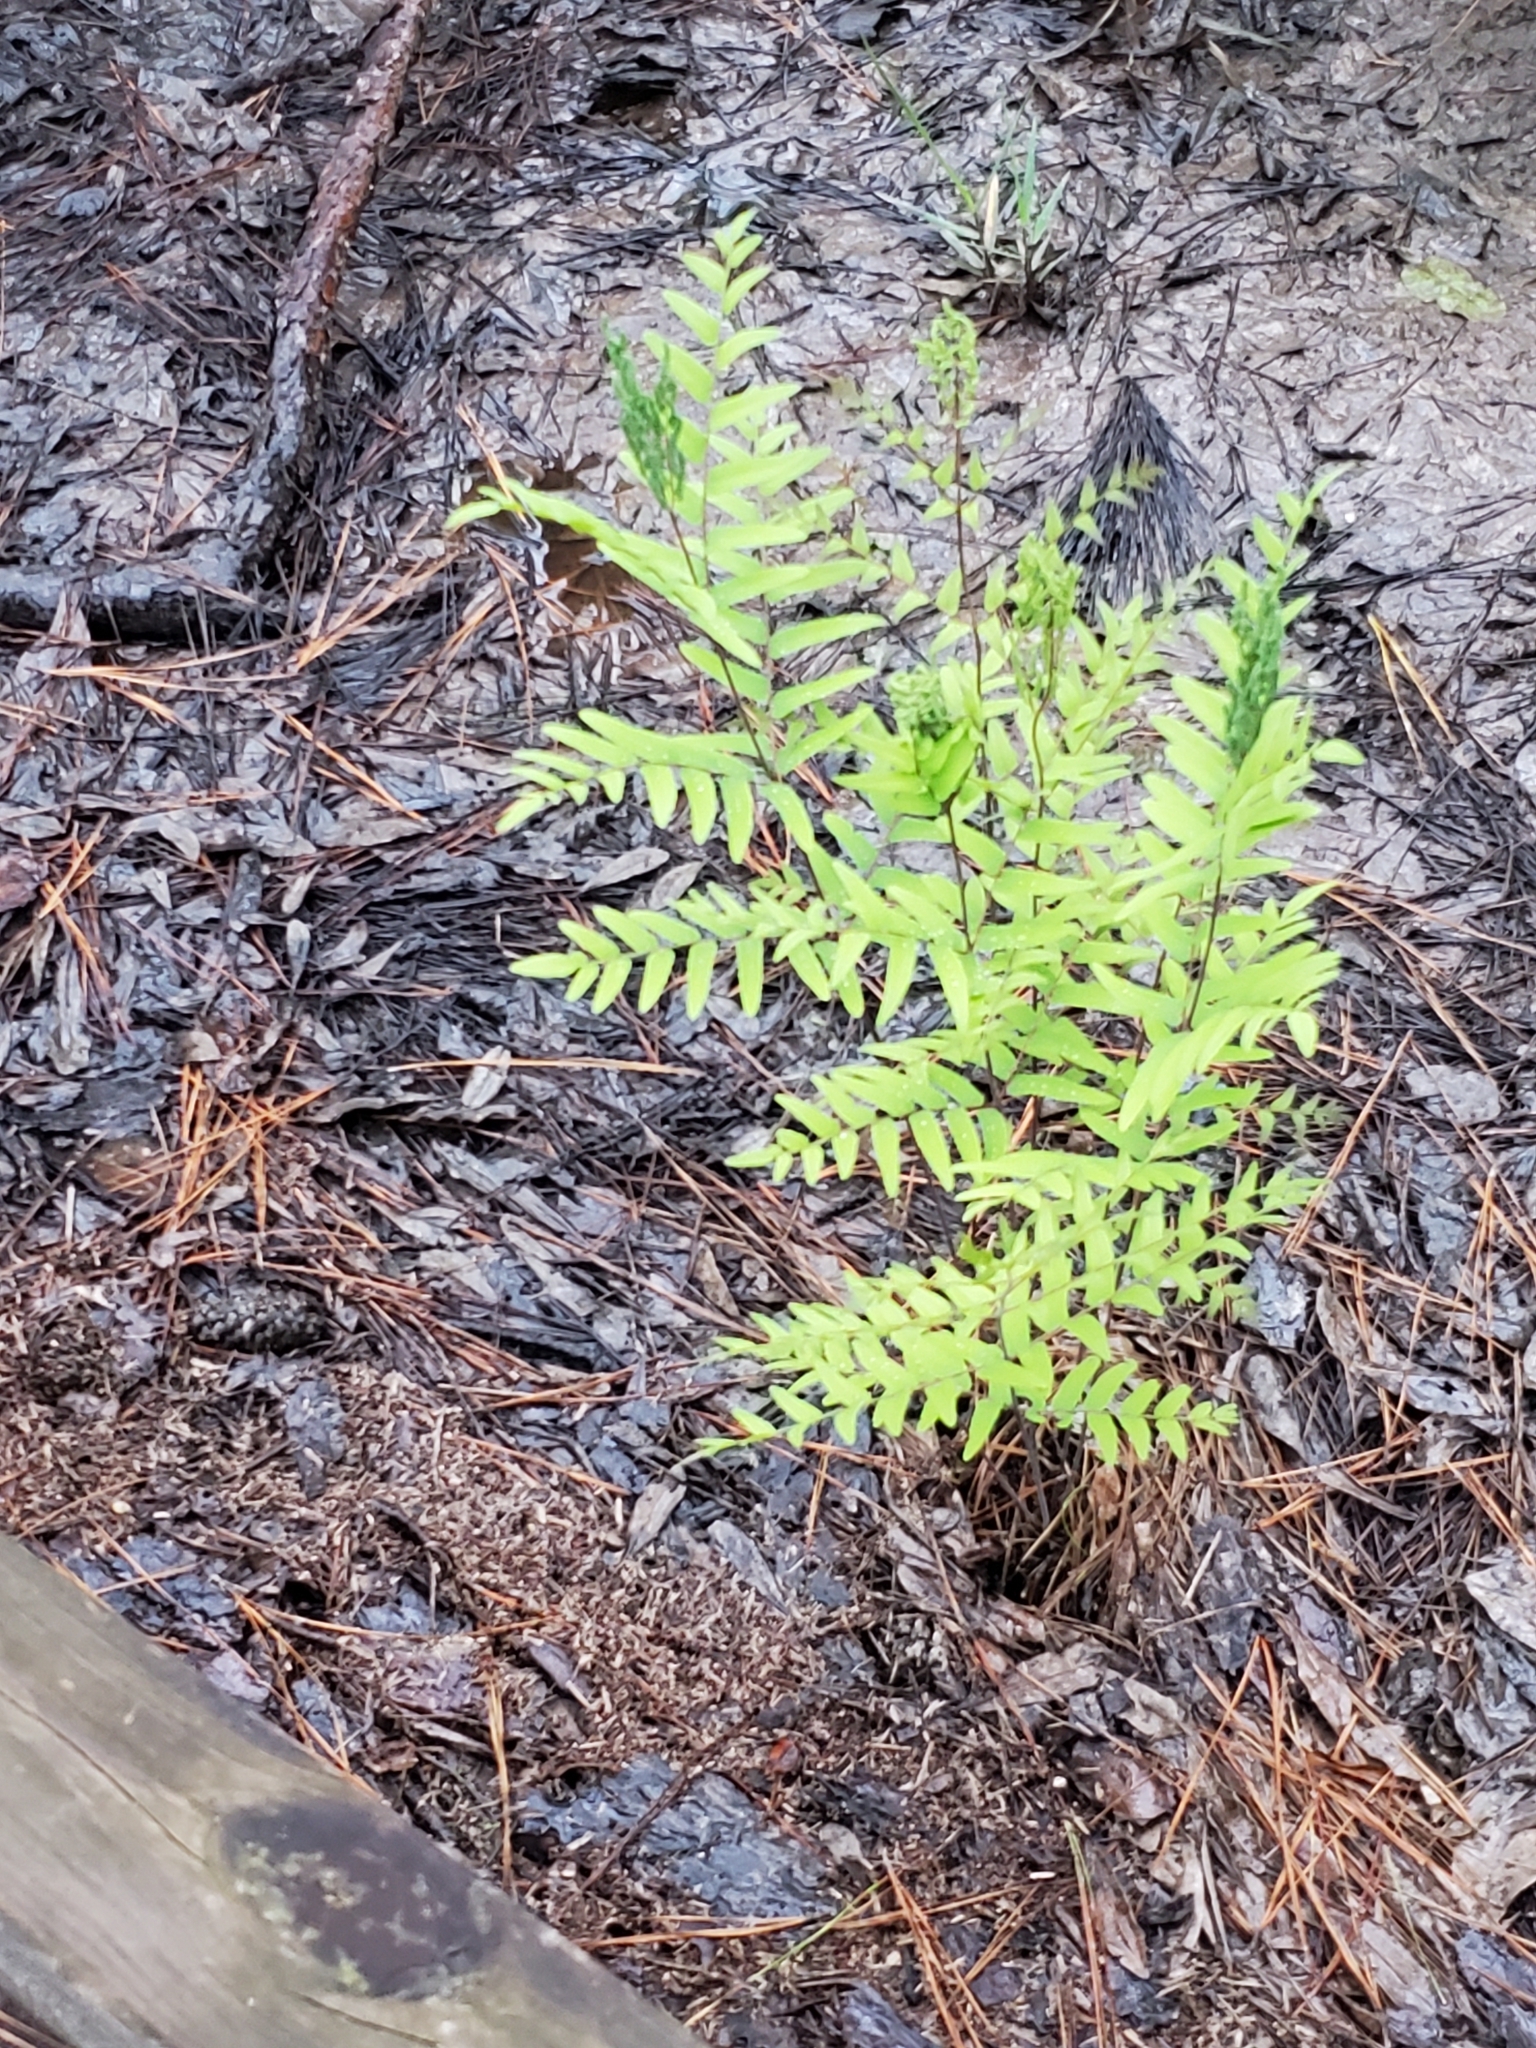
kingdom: Plantae
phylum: Tracheophyta
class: Polypodiopsida
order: Osmundales
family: Osmundaceae
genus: Osmunda
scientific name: Osmunda spectabilis
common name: American royal fern
